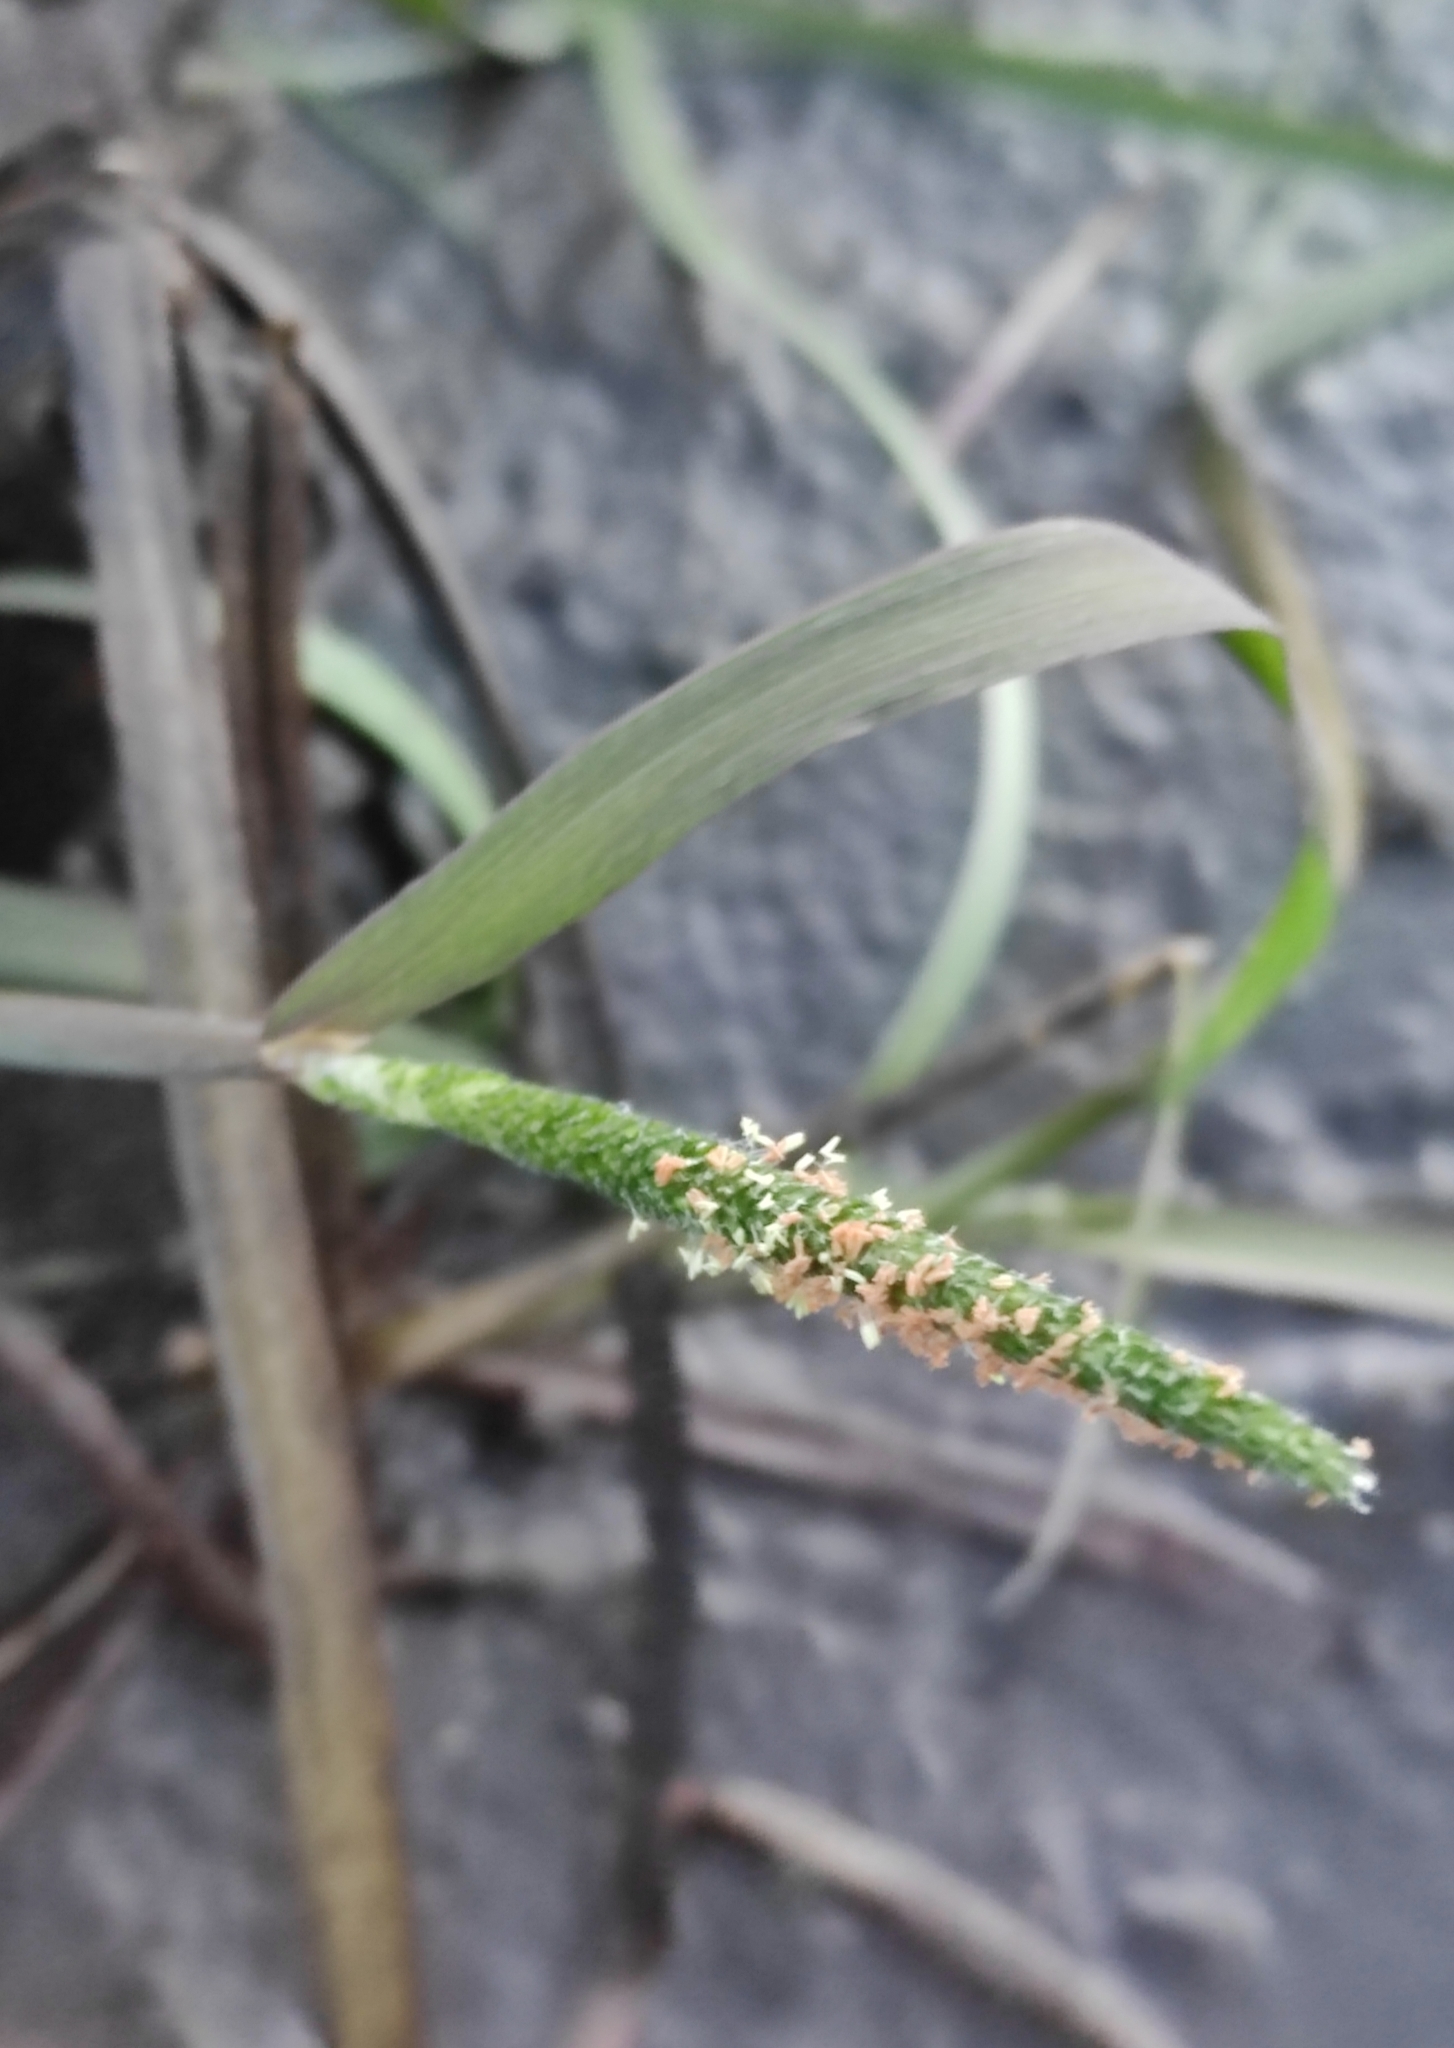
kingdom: Plantae
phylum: Tracheophyta
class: Liliopsida
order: Poales
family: Poaceae
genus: Alopecurus
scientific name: Alopecurus aequalis
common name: Orange foxtail
